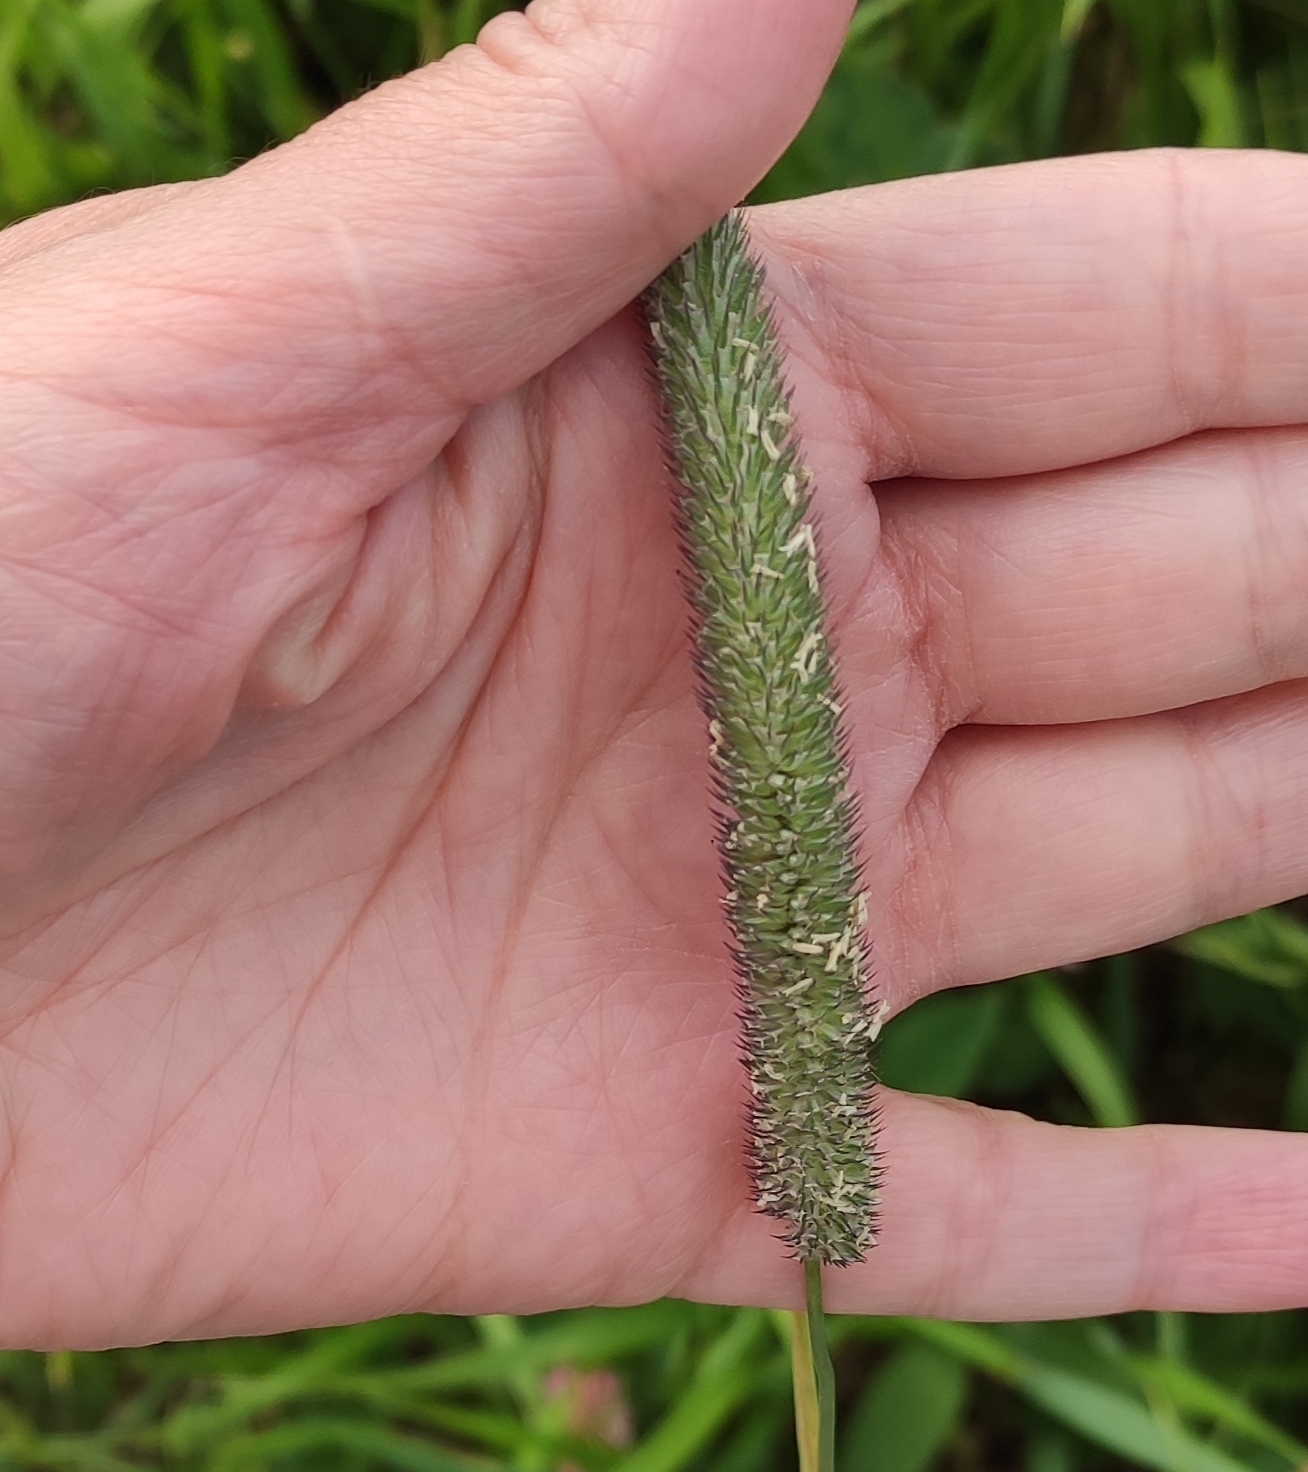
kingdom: Plantae
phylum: Tracheophyta
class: Liliopsida
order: Poales
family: Poaceae
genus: Phleum
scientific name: Phleum pratense
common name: Timothy grass
